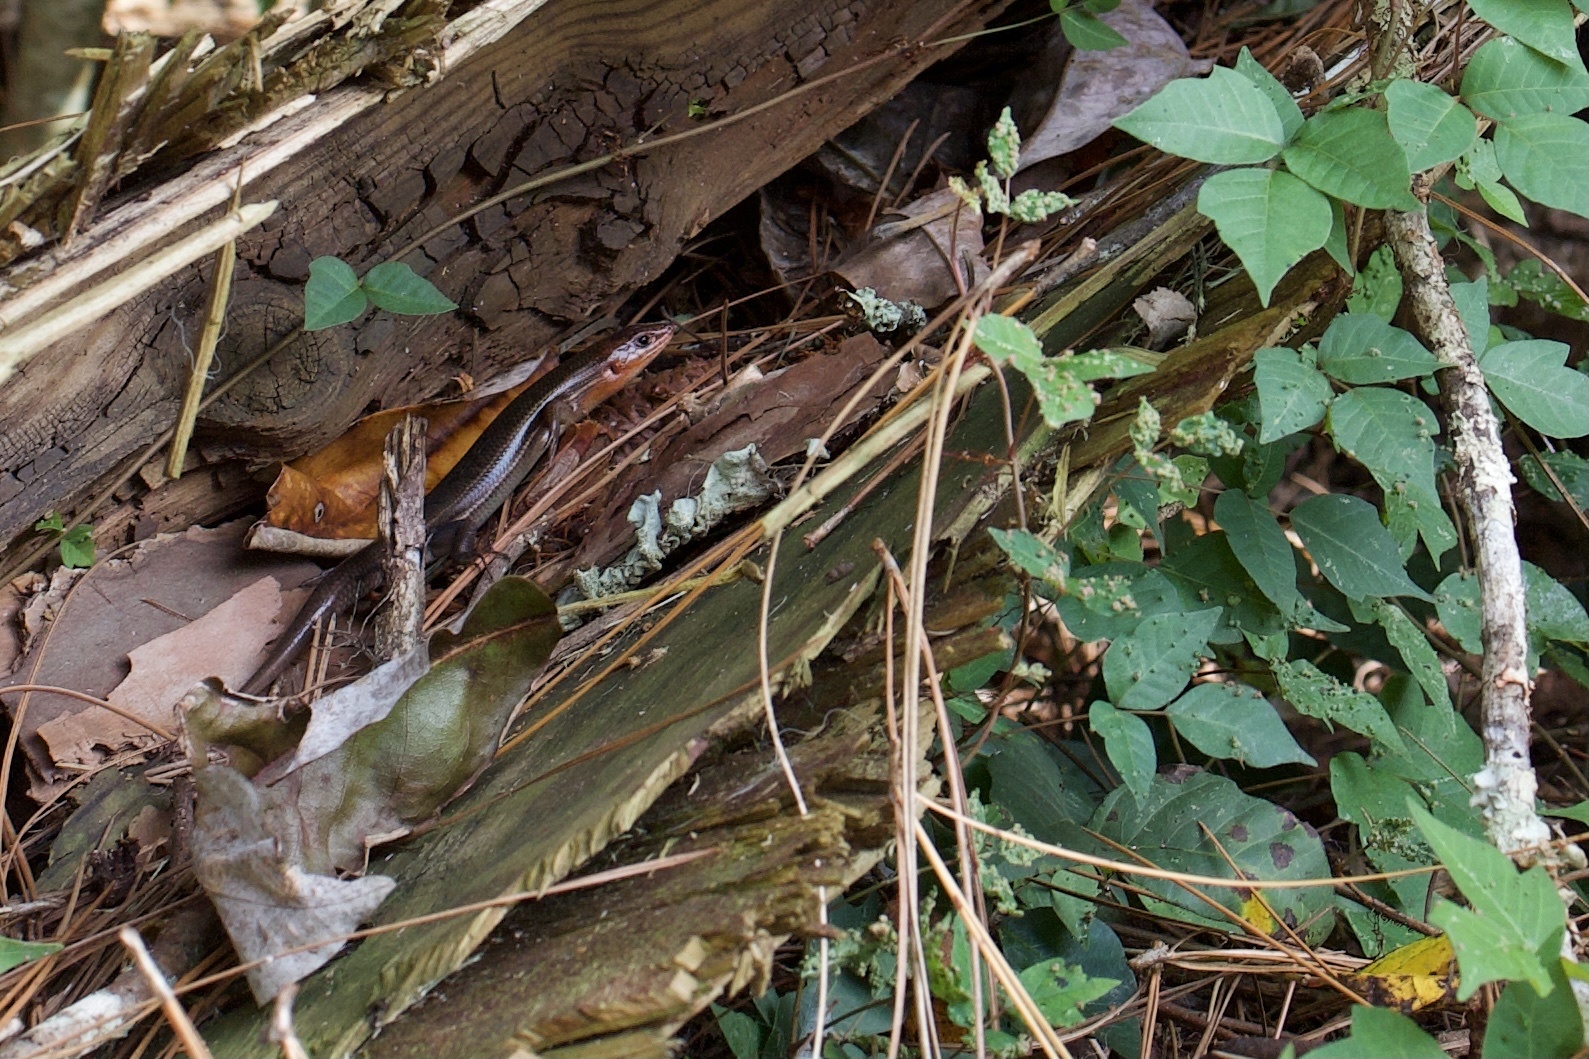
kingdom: Animalia
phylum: Chordata
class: Squamata
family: Scincidae
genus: Plestiodon
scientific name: Plestiodon inexpectatus
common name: Southeastern five-lined skink
